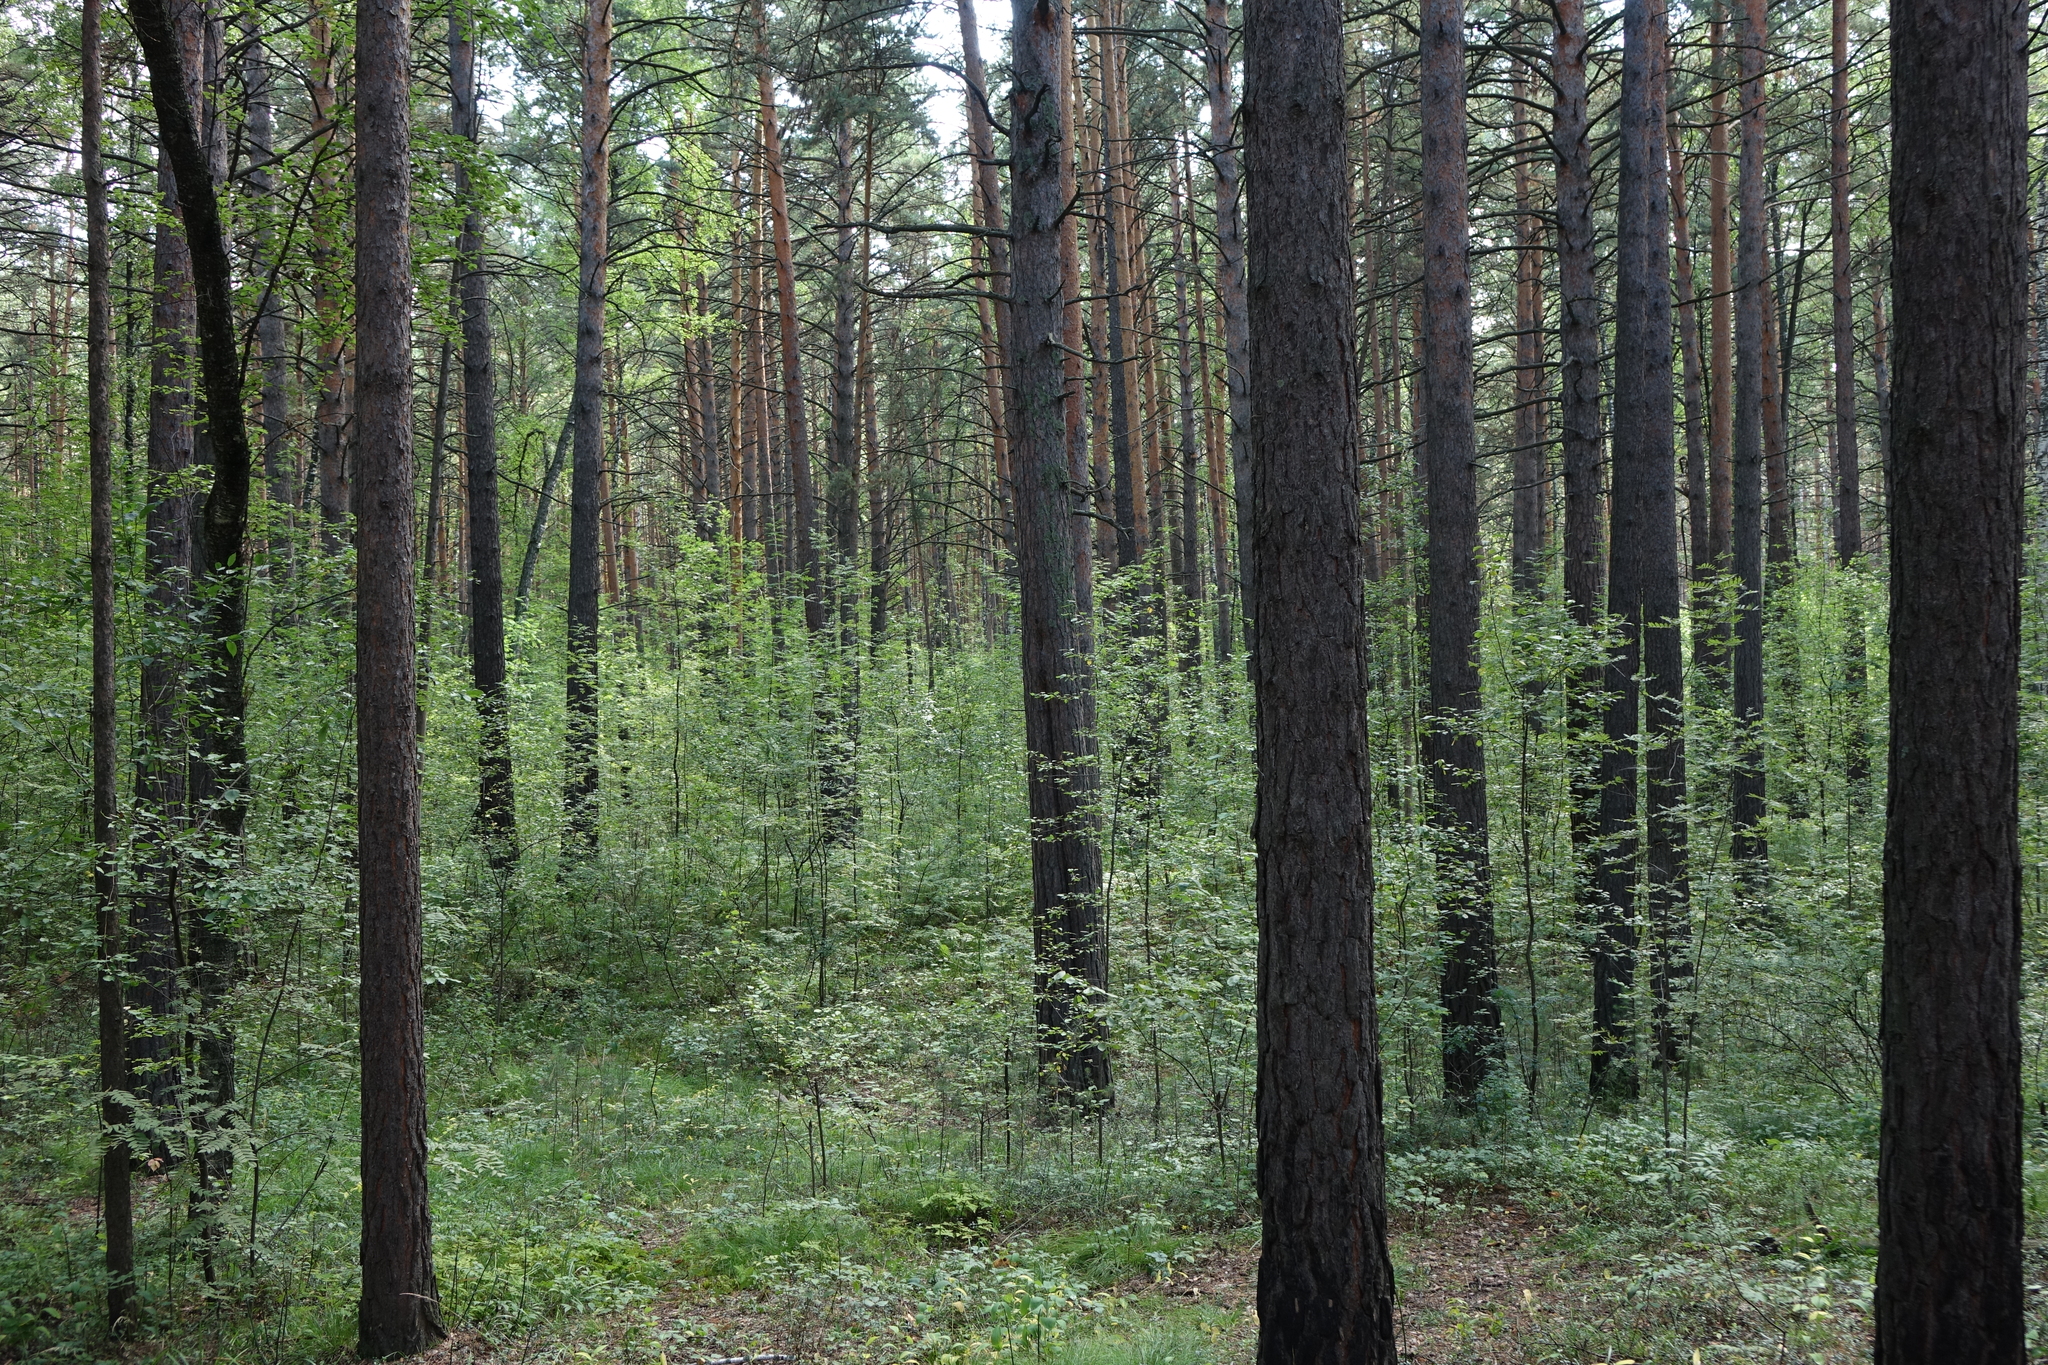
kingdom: Plantae
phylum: Tracheophyta
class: Pinopsida
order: Pinales
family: Pinaceae
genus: Pinus
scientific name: Pinus sylvestris
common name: Scots pine
